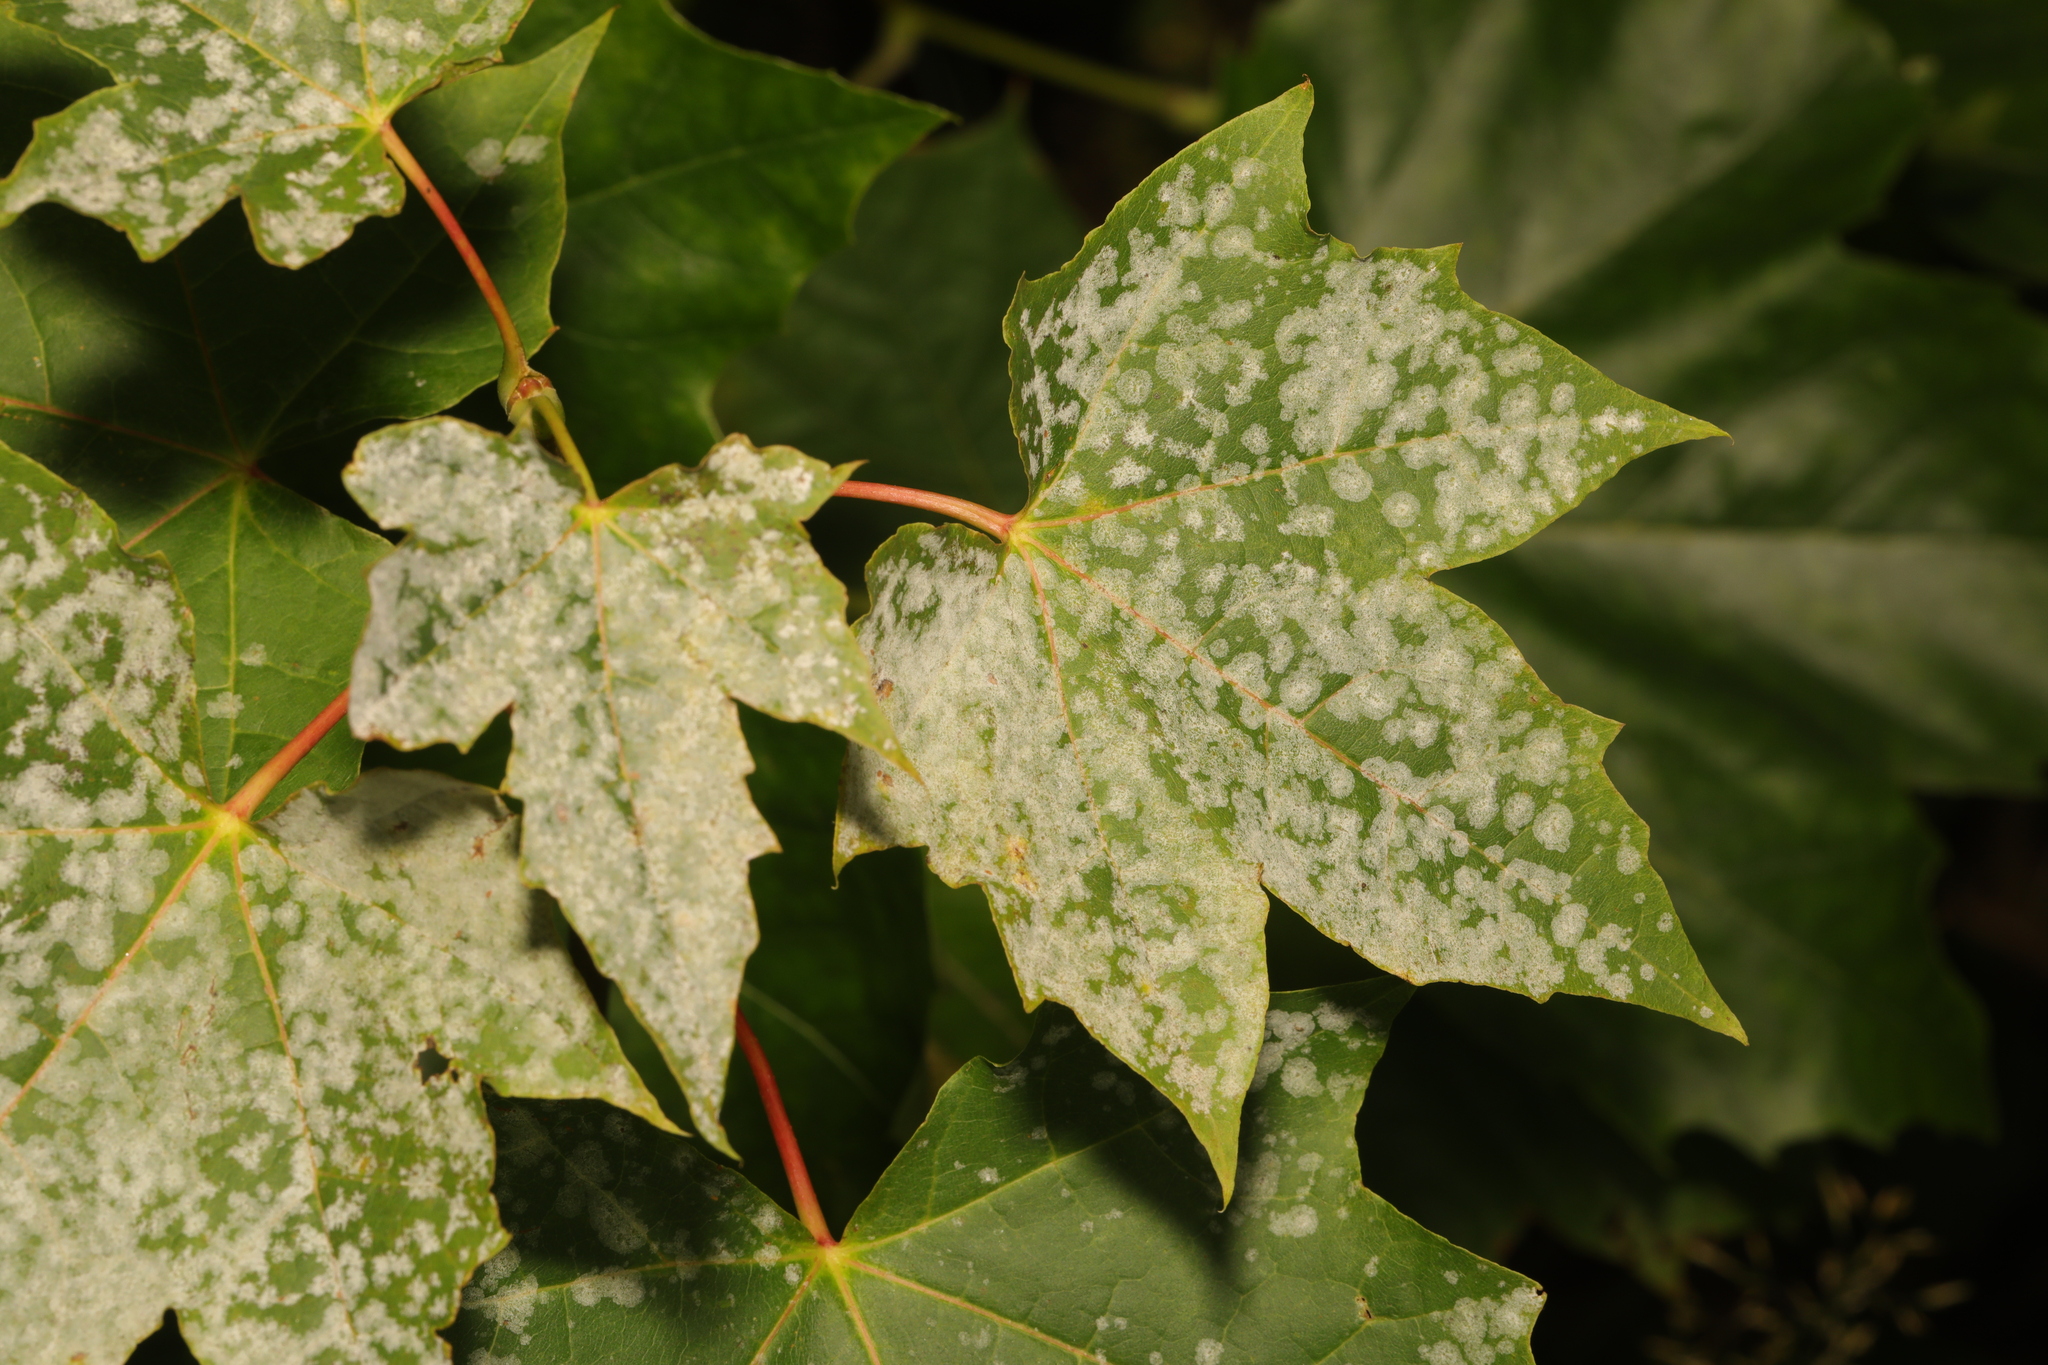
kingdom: Plantae
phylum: Tracheophyta
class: Magnoliopsida
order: Sapindales
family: Sapindaceae
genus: Acer
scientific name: Acer platanoides
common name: Norway maple
